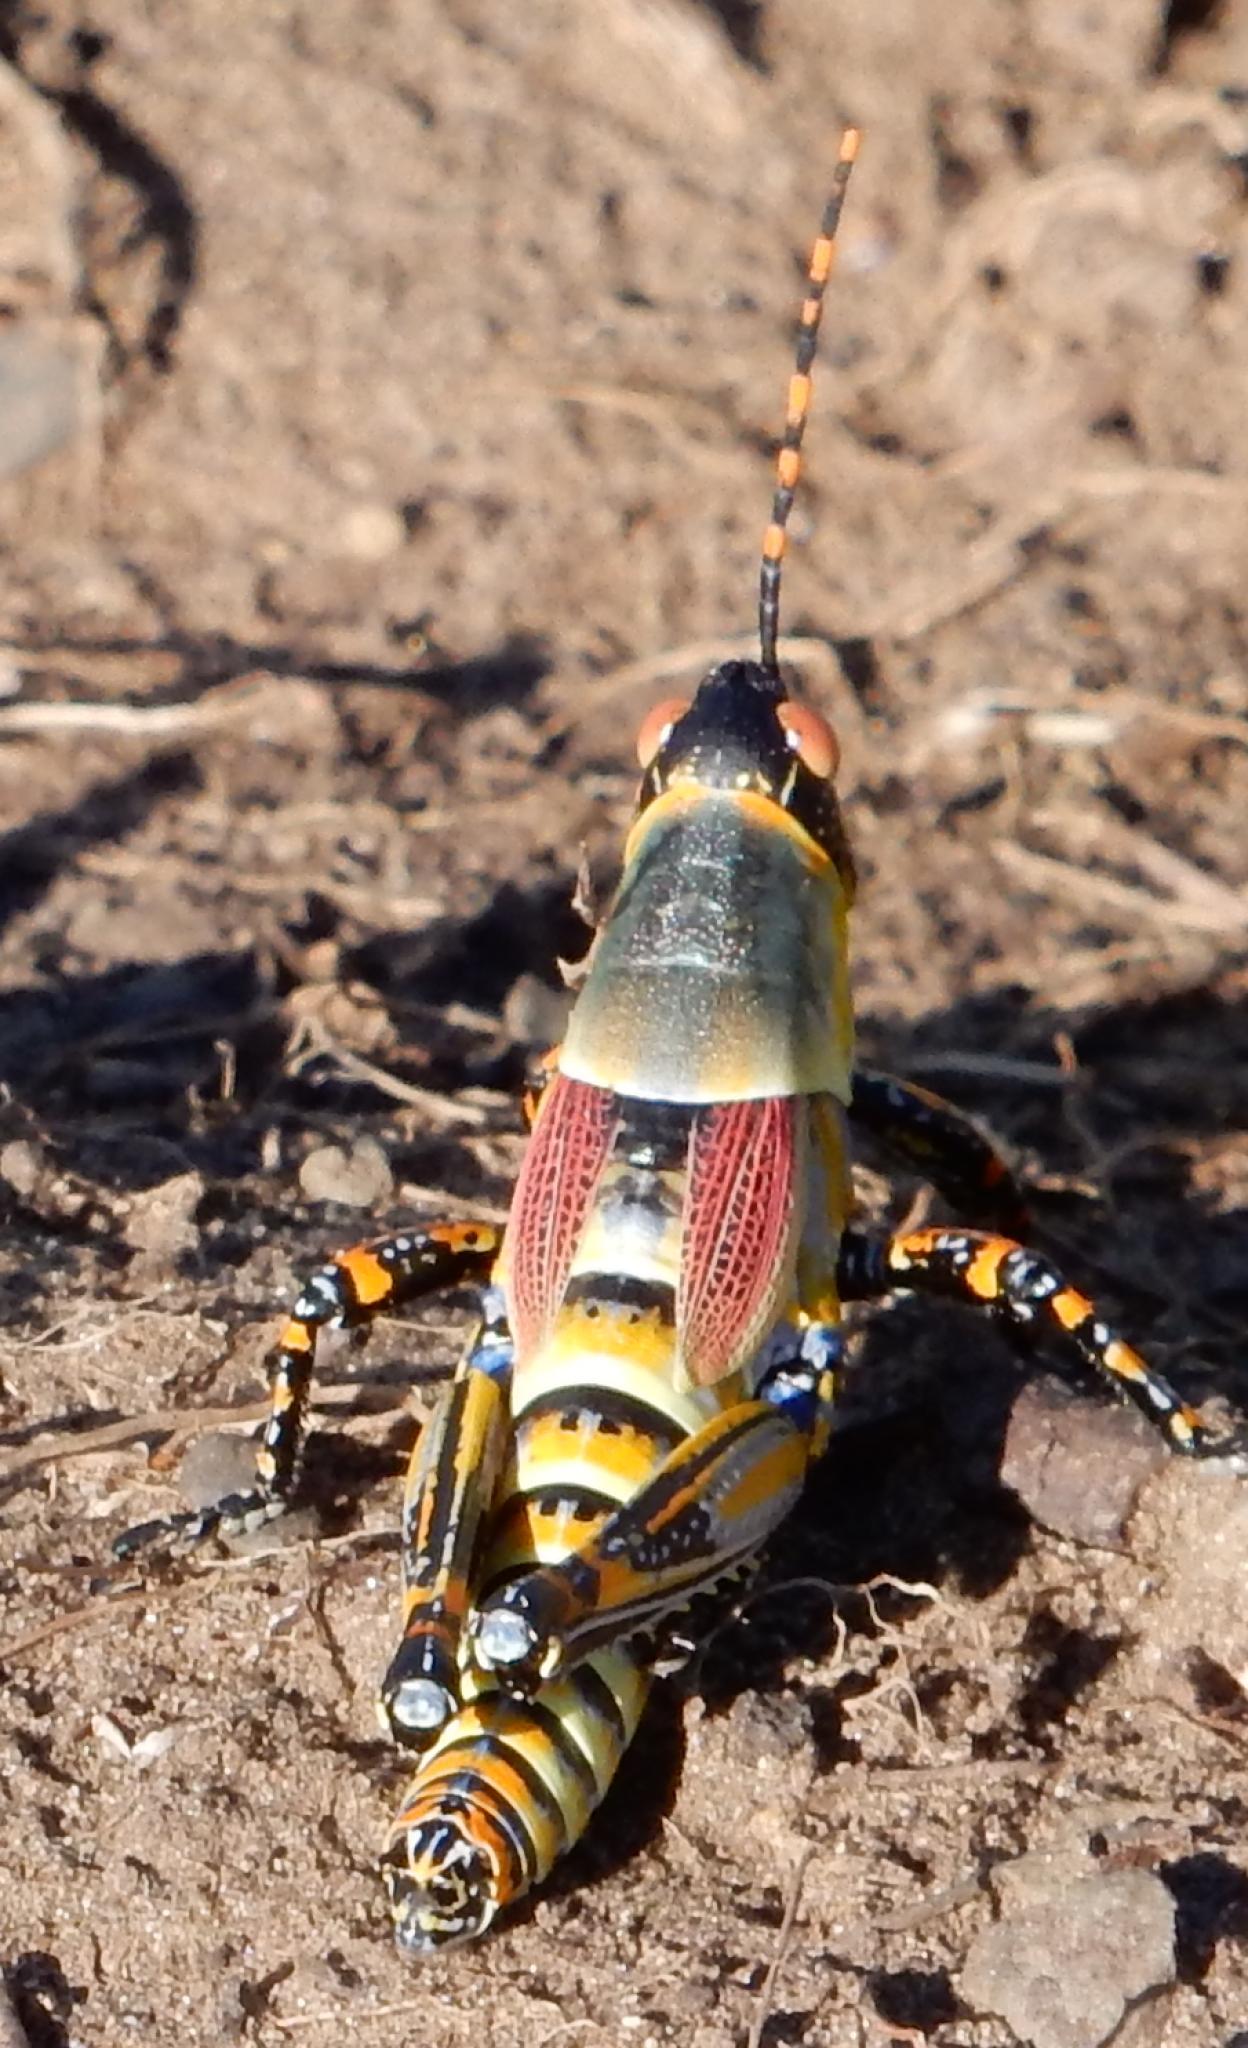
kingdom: Animalia
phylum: Arthropoda
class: Insecta
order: Orthoptera
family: Pyrgomorphidae
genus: Zonocerus
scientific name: Zonocerus elegans
